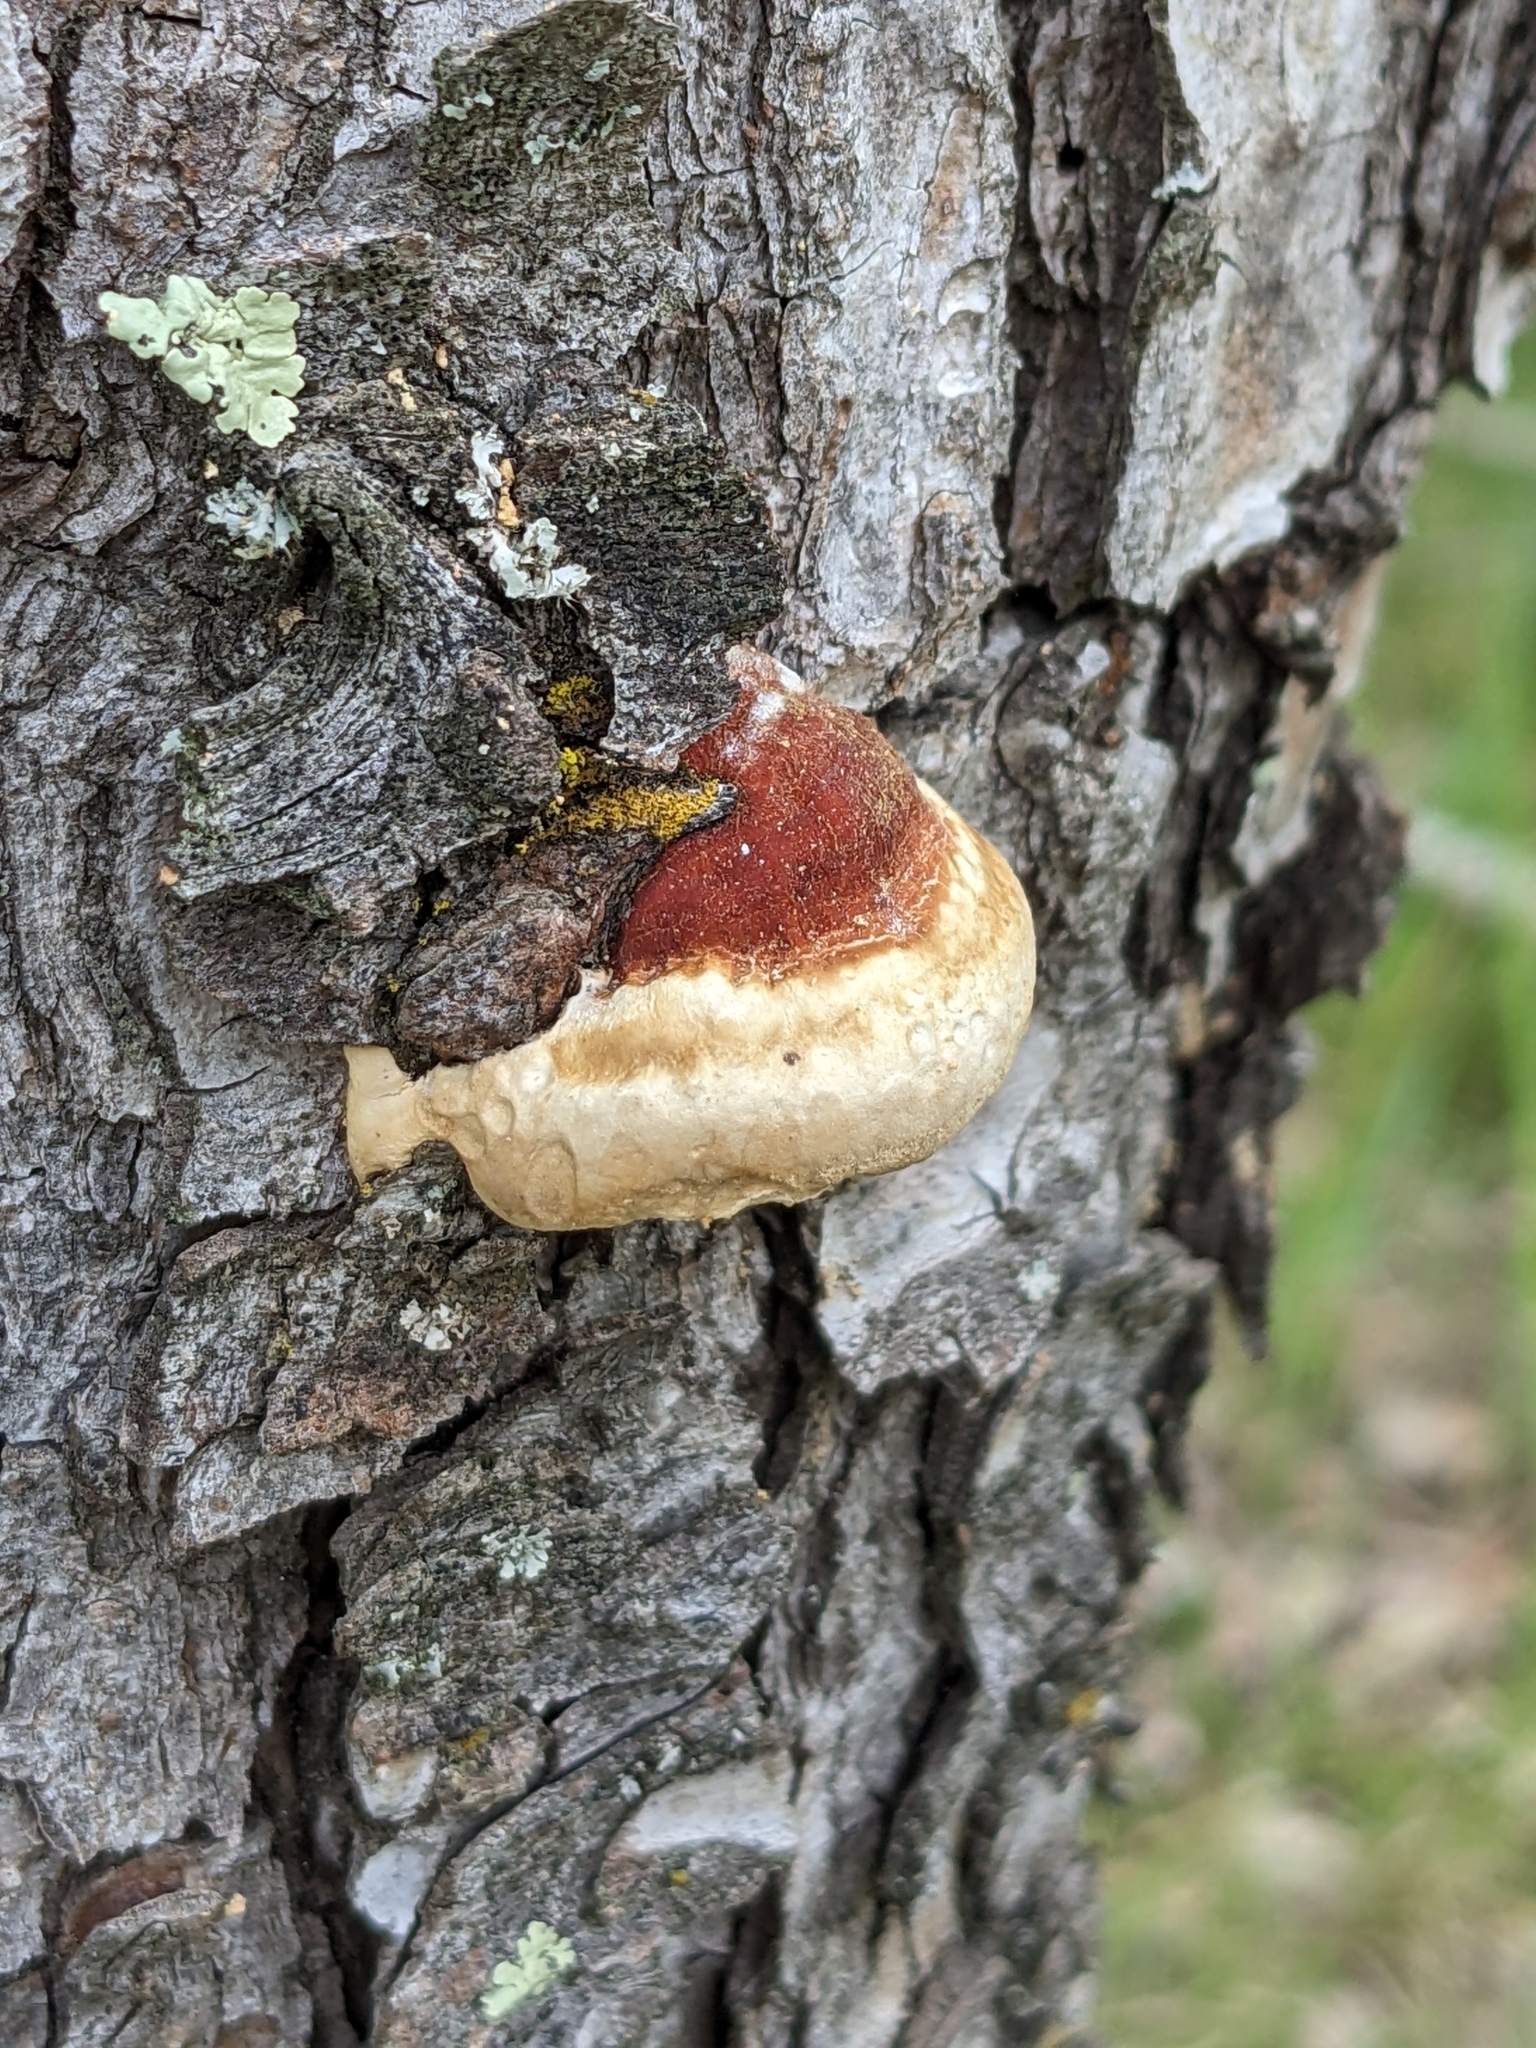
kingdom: Fungi
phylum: Basidiomycota
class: Agaricomycetes
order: Polyporales
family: Fomitopsidaceae
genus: Fomitopsis
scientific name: Fomitopsis pinicola
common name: Red-belted bracket
